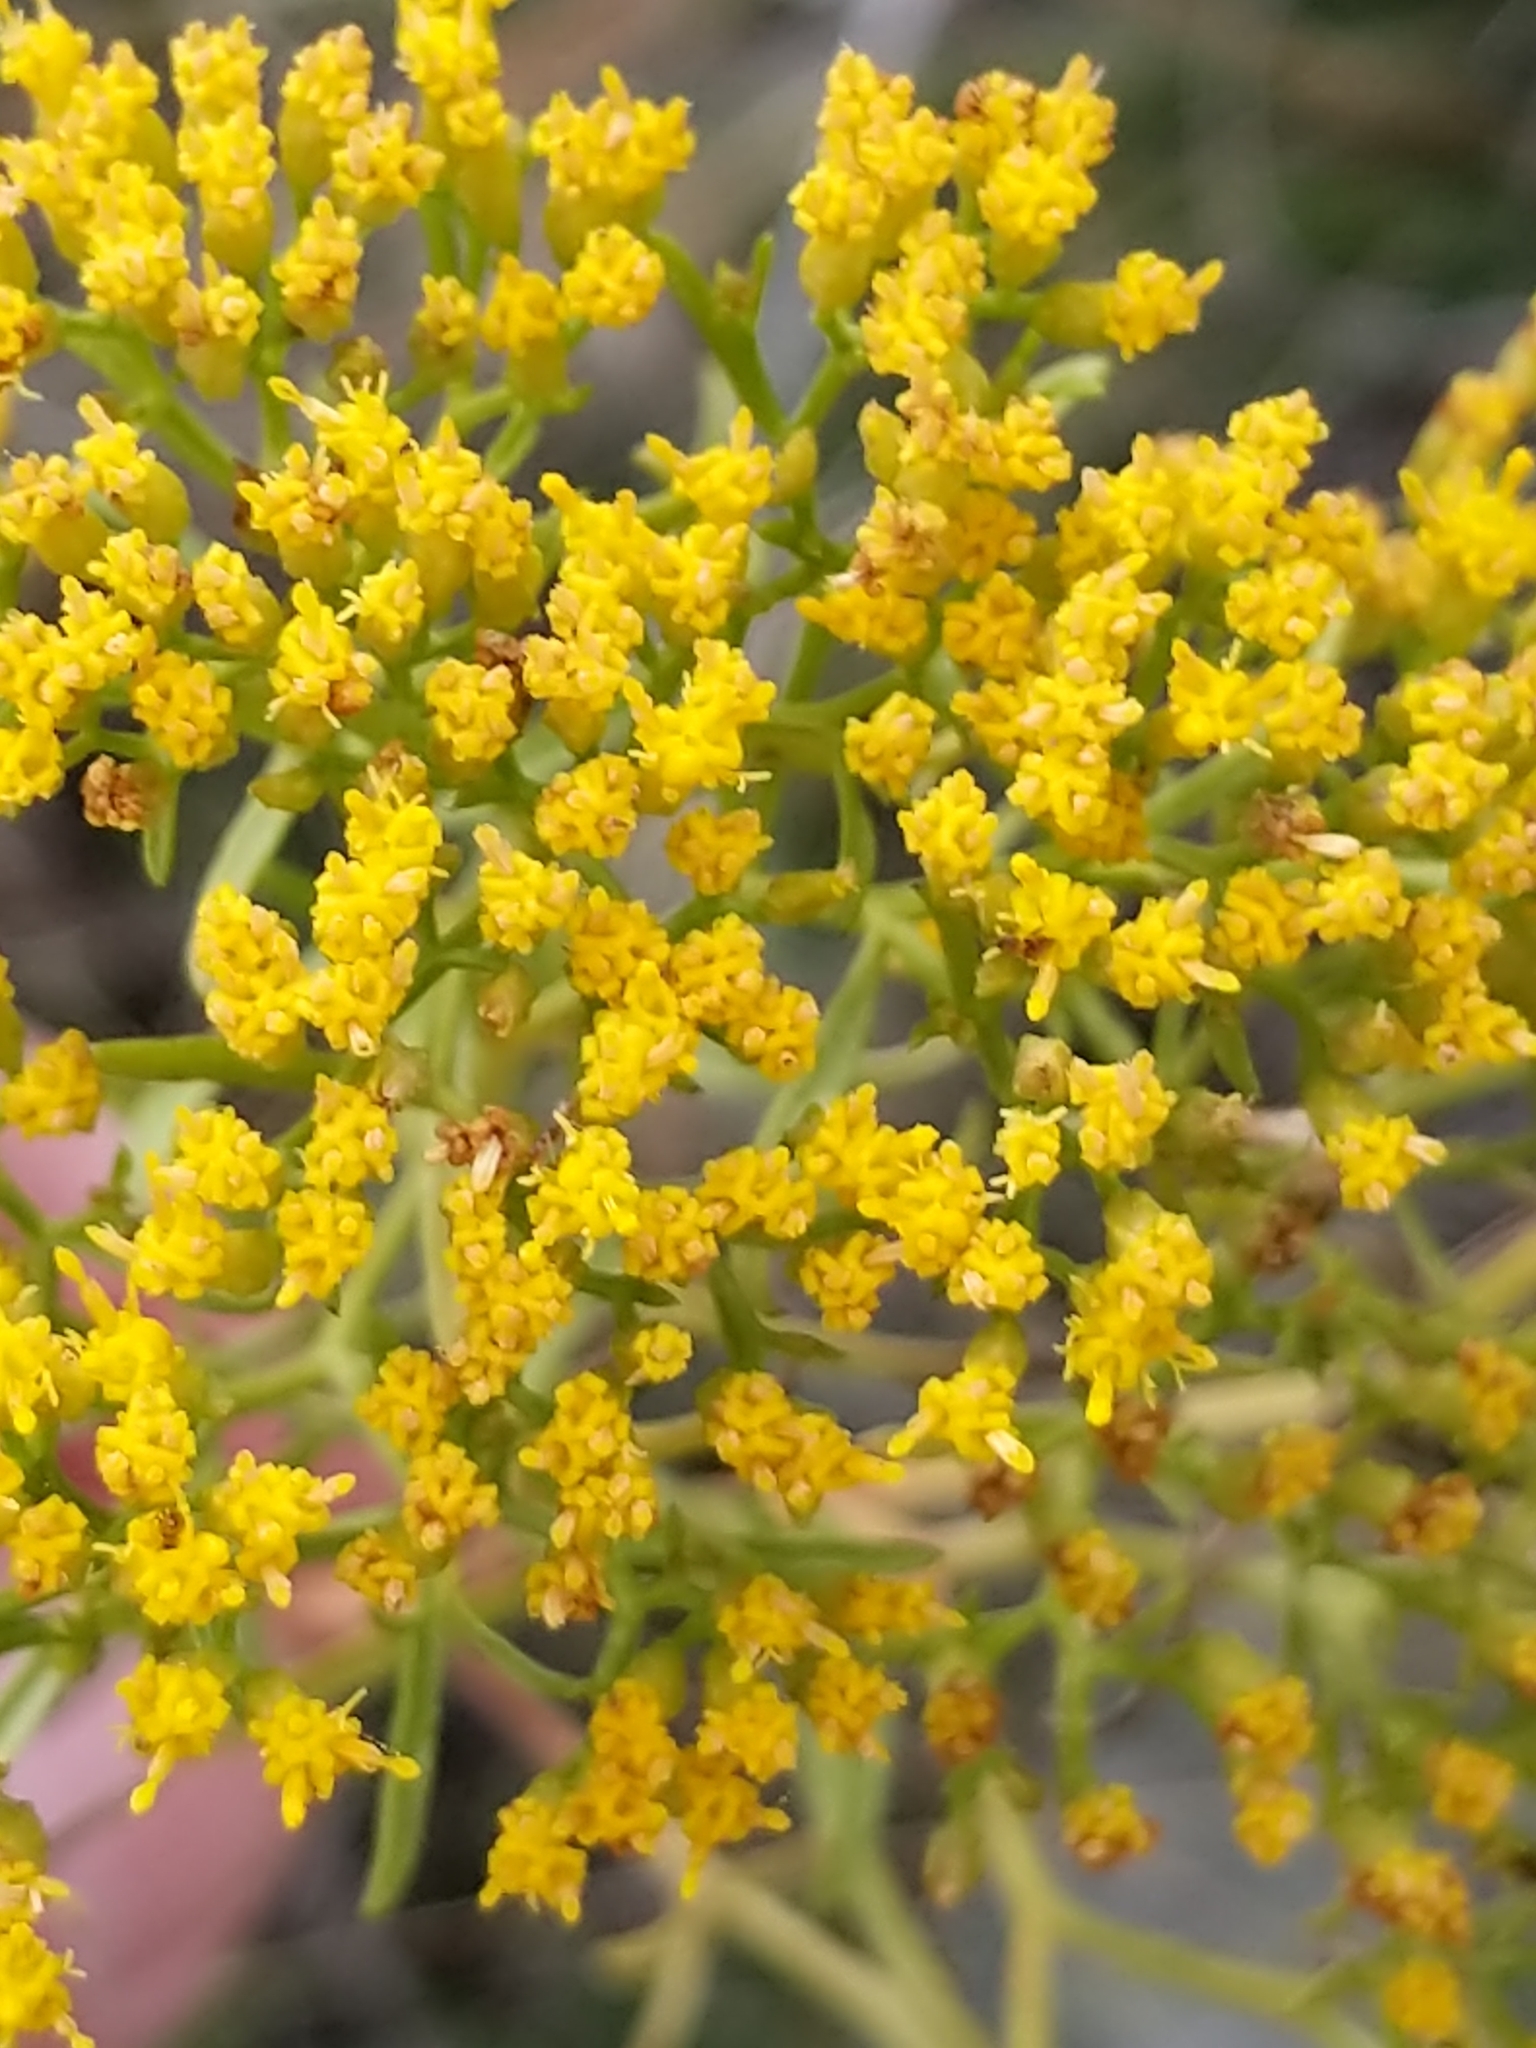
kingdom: Plantae
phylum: Tracheophyta
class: Magnoliopsida
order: Asterales
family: Asteraceae
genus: Gymnosperma
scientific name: Gymnosperma glutinosum
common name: Gumhead
